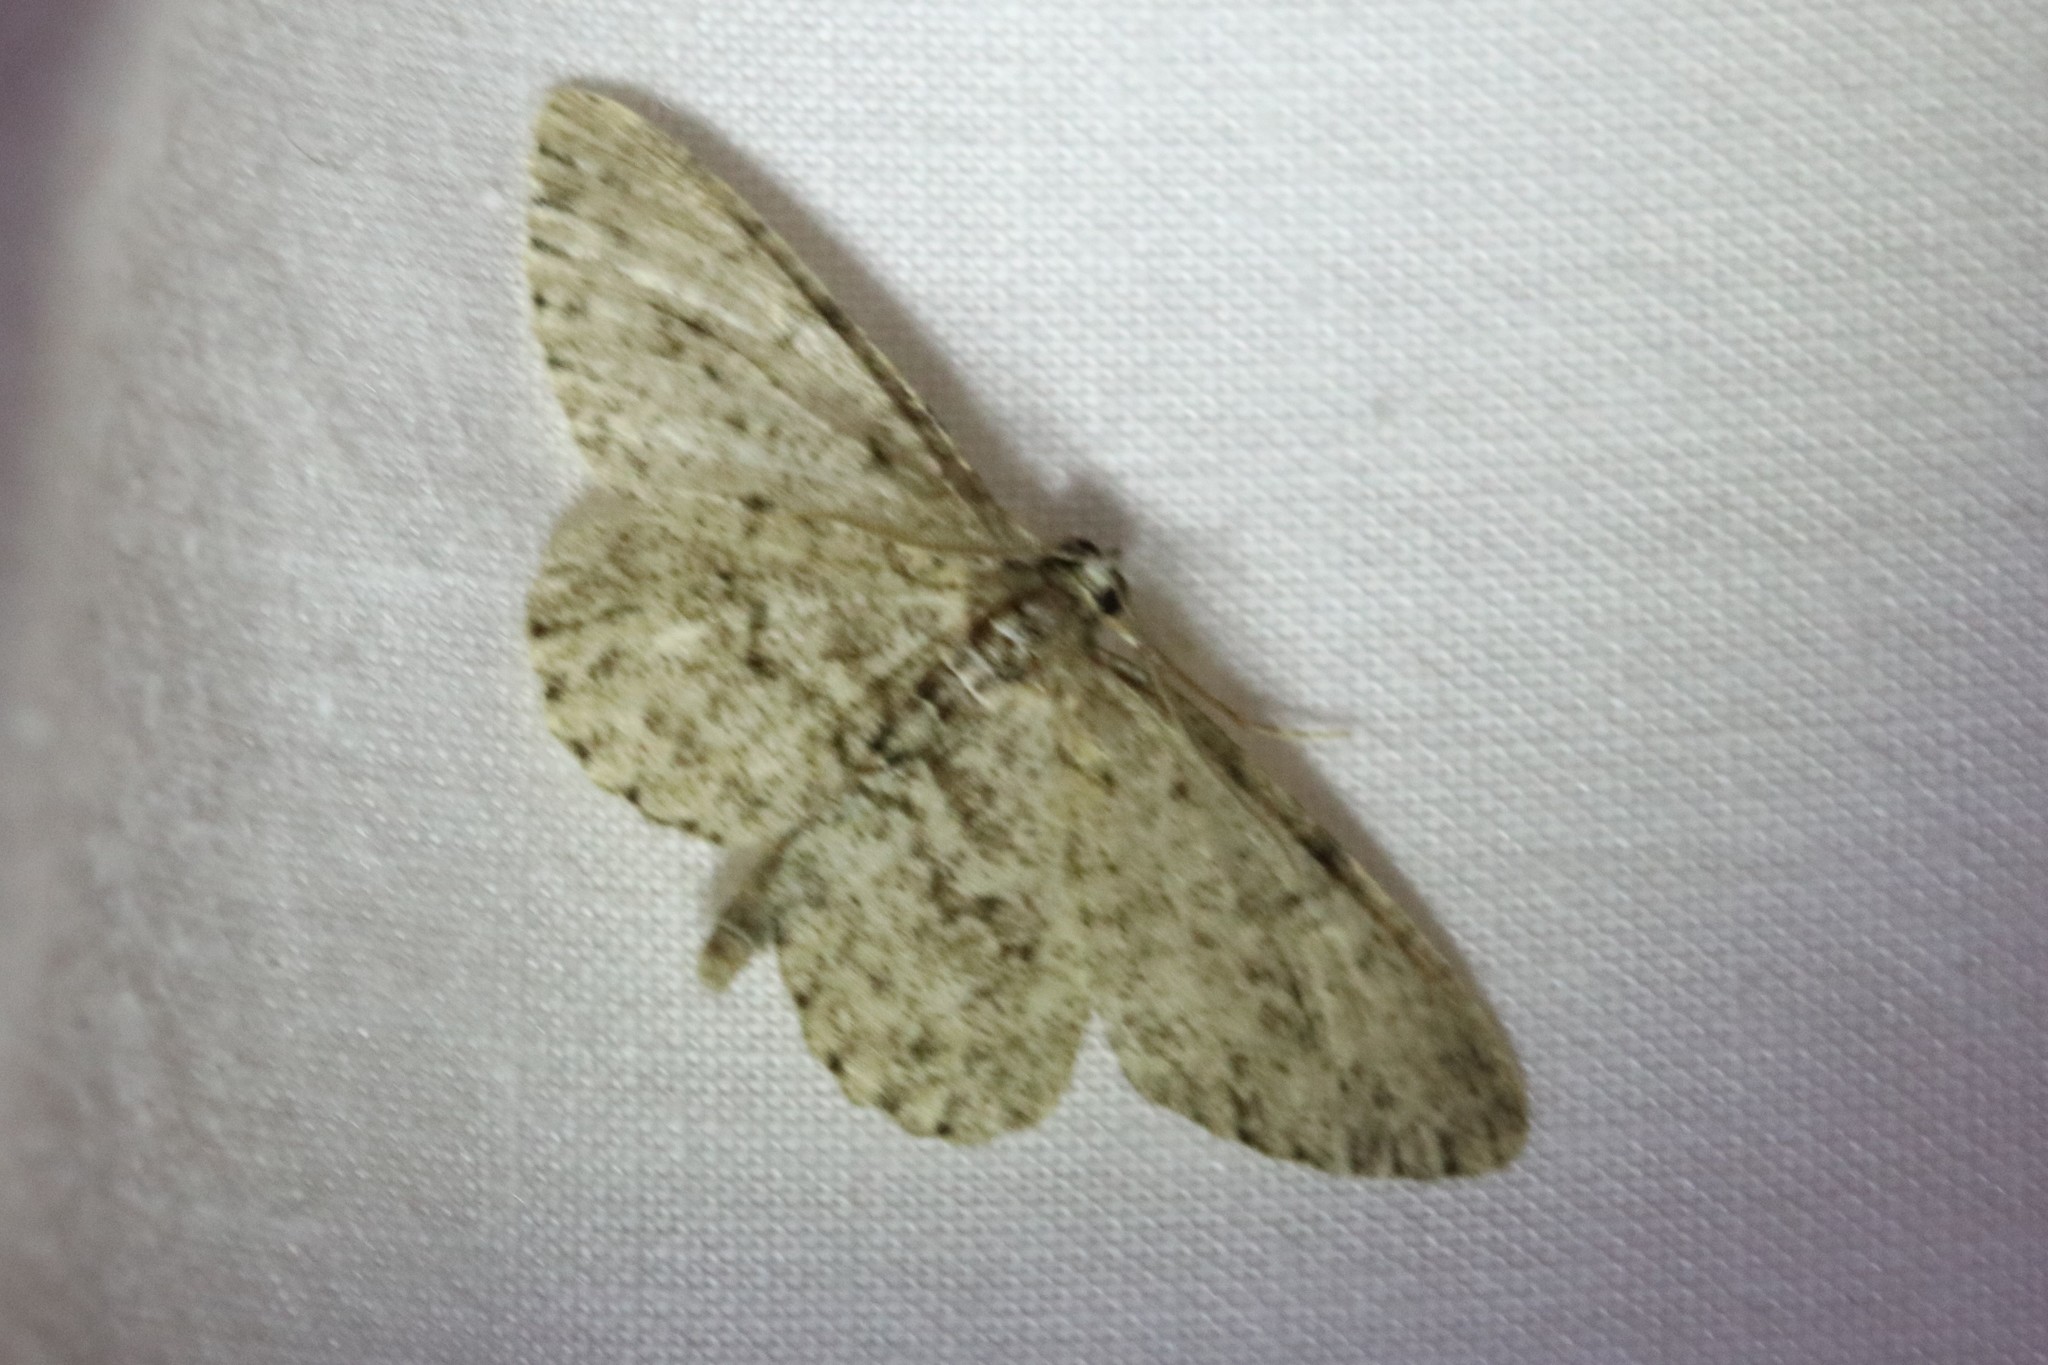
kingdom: Animalia
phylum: Arthropoda
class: Insecta
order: Lepidoptera
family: Geometridae
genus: Protoboarmia
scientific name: Protoboarmia porcelaria
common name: Porcelain gray
